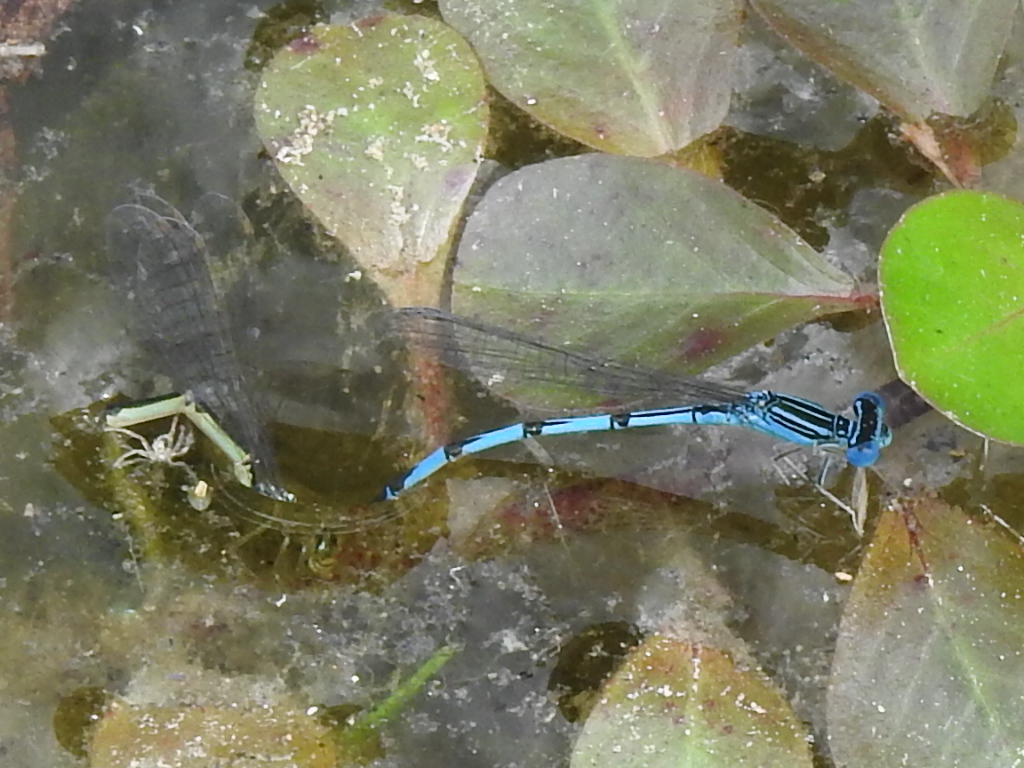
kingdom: Animalia
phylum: Arthropoda
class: Insecta
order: Odonata
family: Coenagrionidae
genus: Enallagma
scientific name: Enallagma basidens
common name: Double-striped bluet
